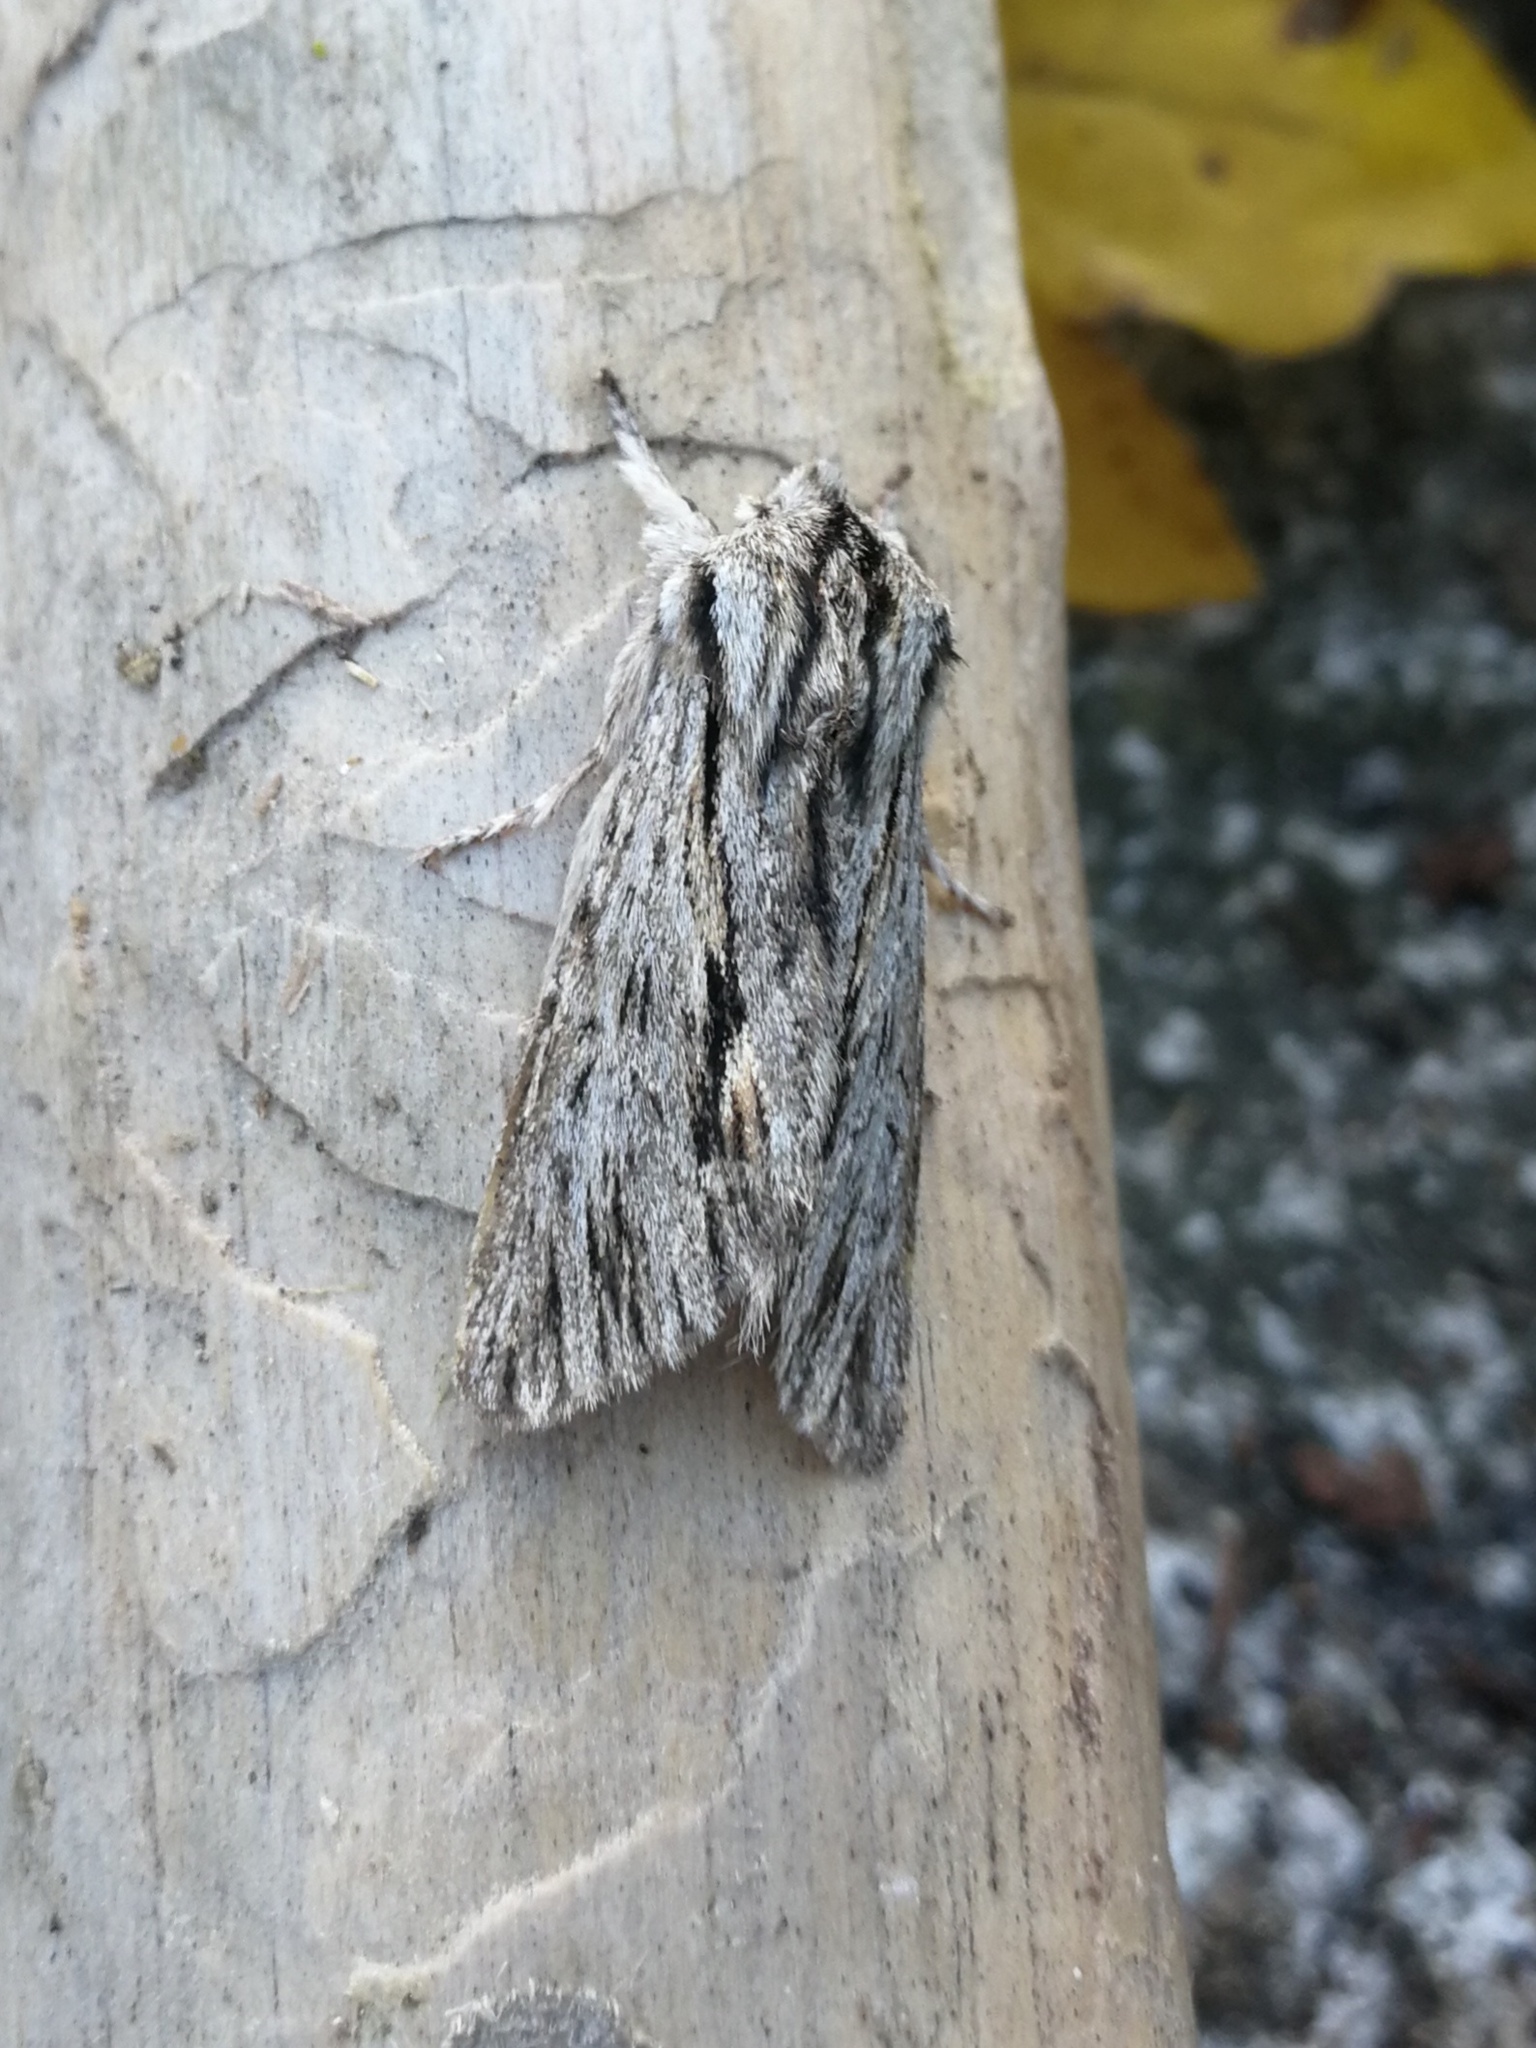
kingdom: Animalia
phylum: Arthropoda
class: Insecta
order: Lepidoptera
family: Noctuidae
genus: Asteroscopus
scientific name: Asteroscopus sphinx
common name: The sprawler
